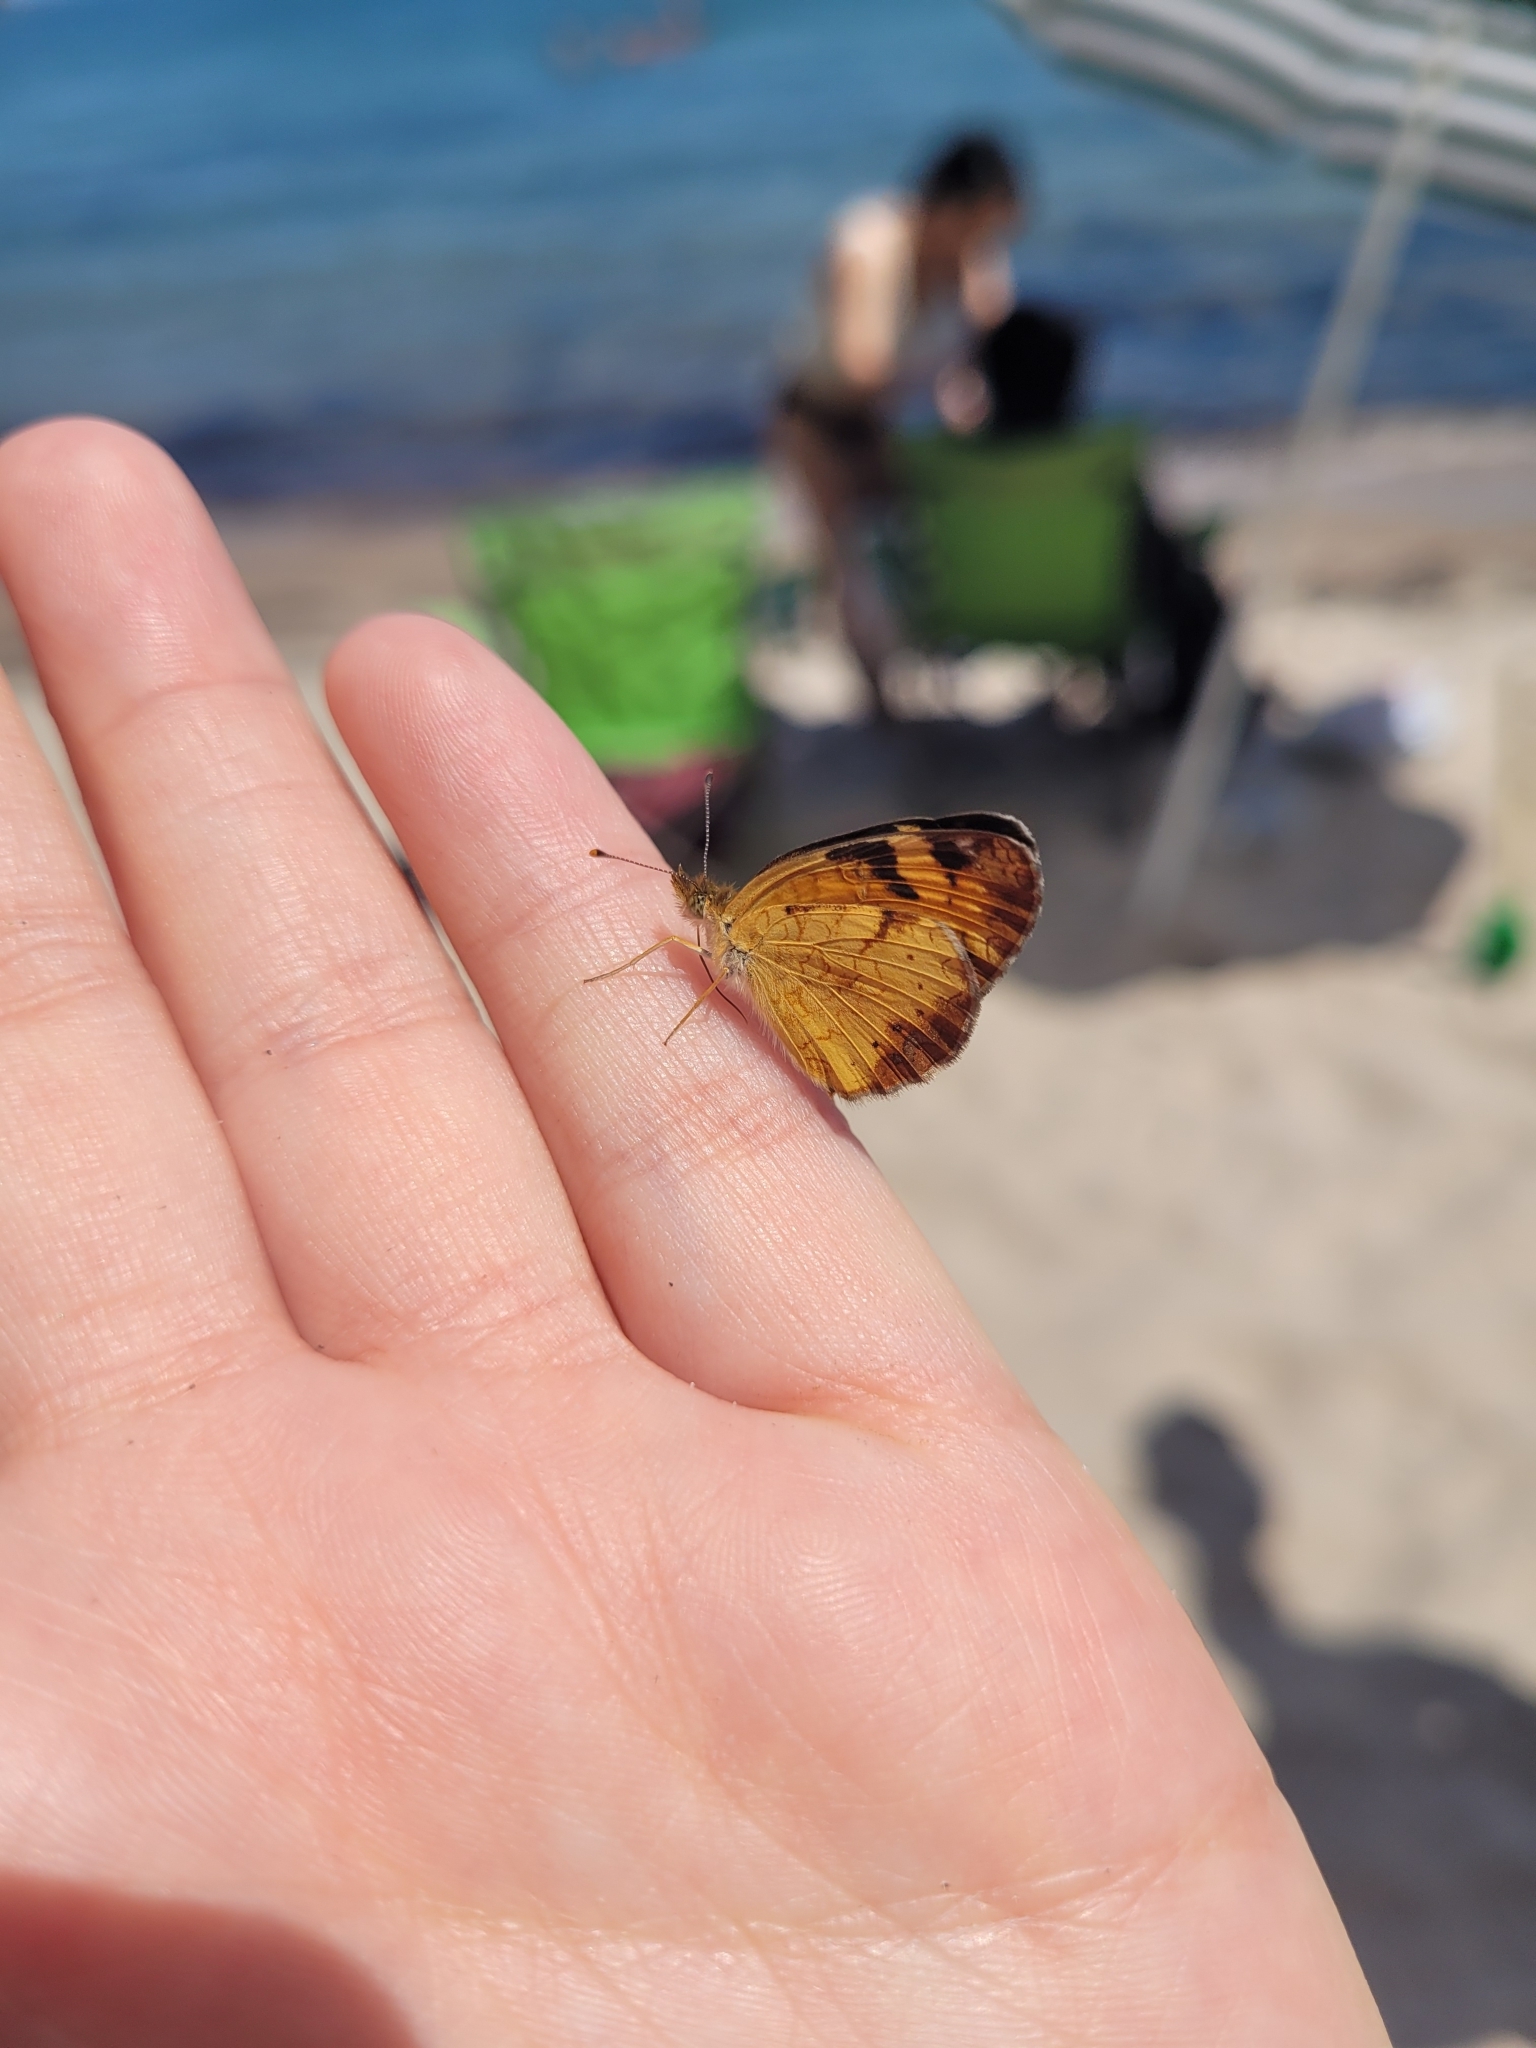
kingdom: Animalia
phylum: Arthropoda
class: Insecta
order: Lepidoptera
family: Nymphalidae
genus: Phyciodes
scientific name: Phyciodes tharos
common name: Pearl crescent
